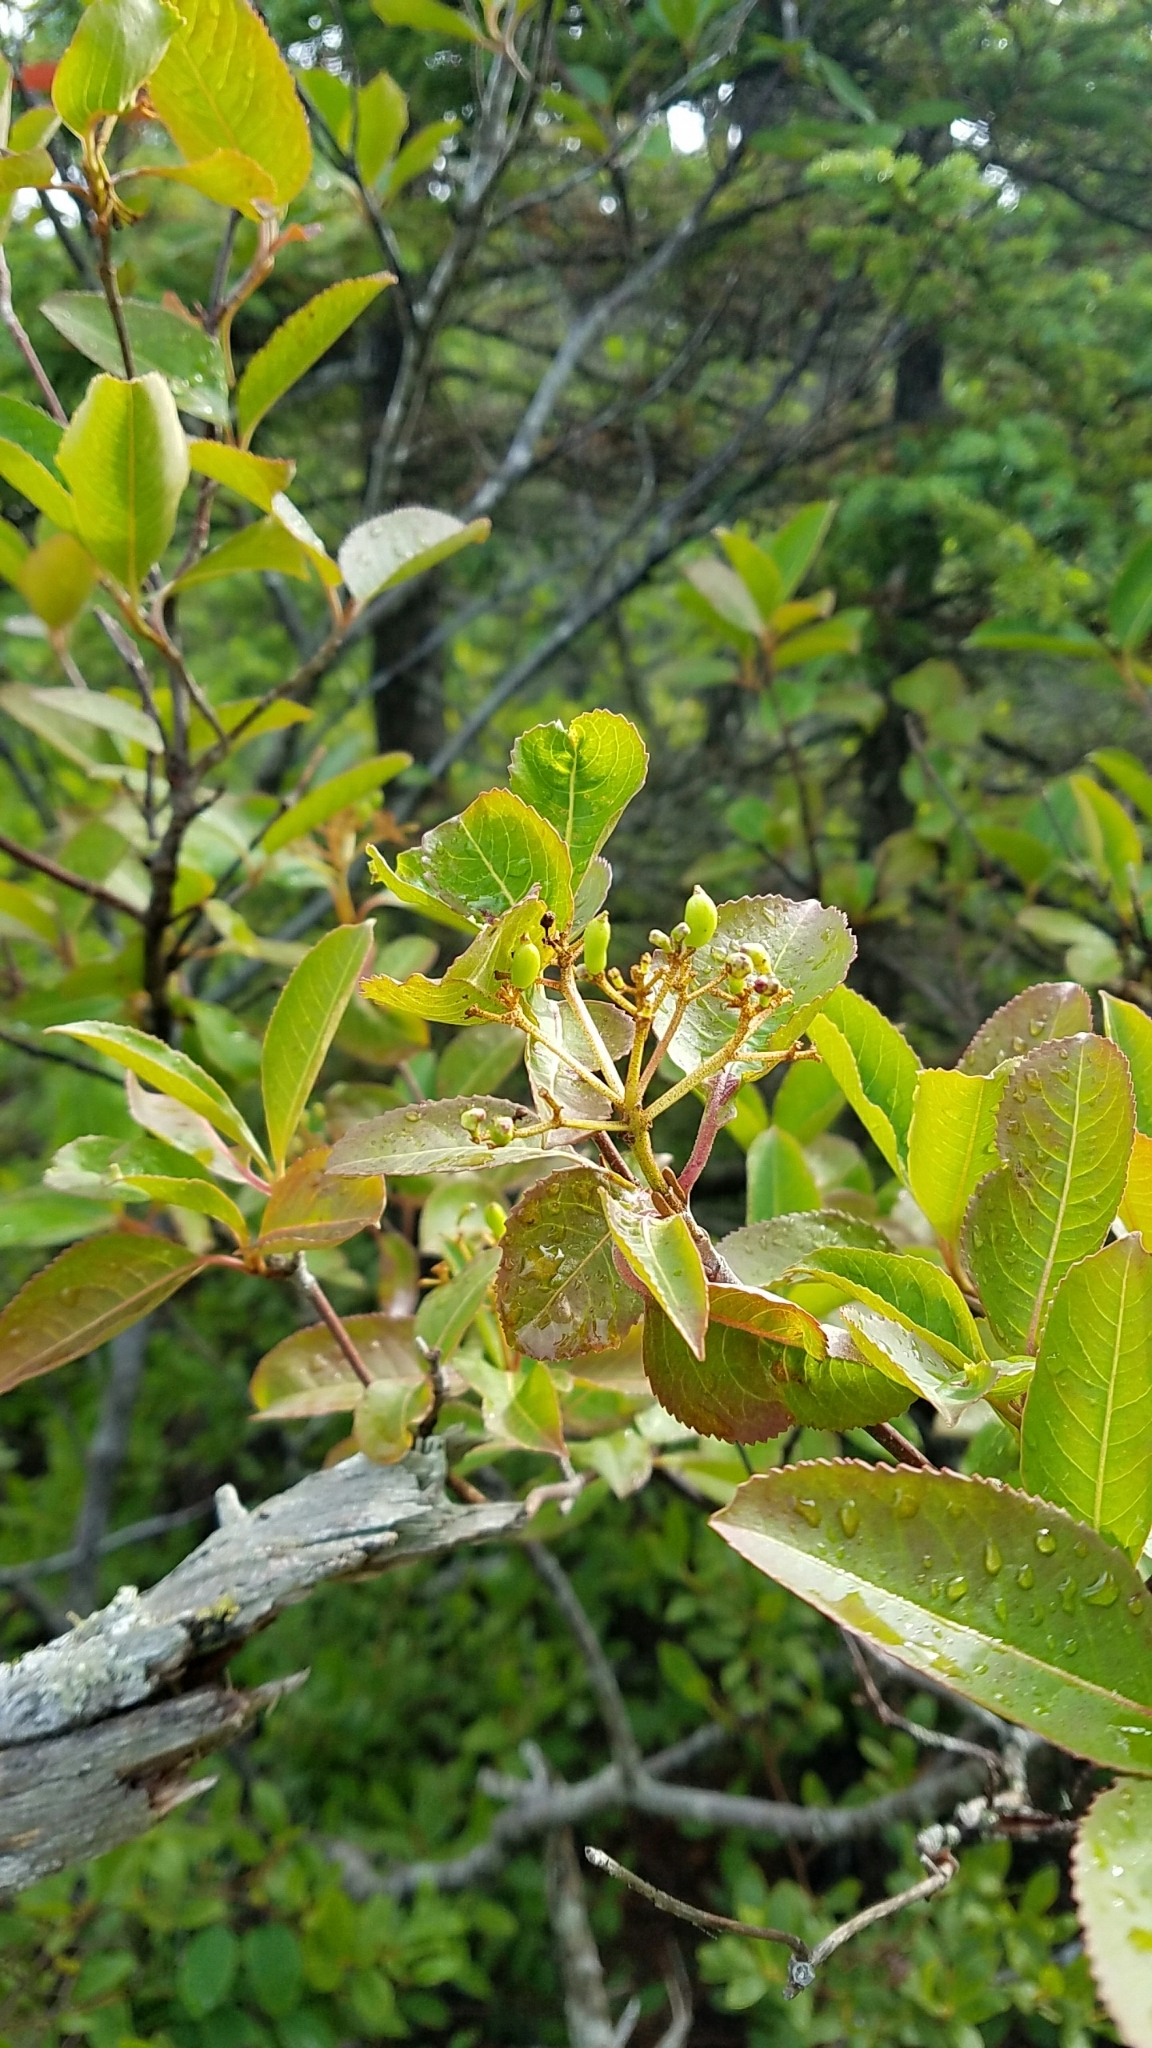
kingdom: Plantae
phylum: Tracheophyta
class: Magnoliopsida
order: Dipsacales
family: Viburnaceae
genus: Viburnum
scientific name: Viburnum cassinoides
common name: Swamp haw
